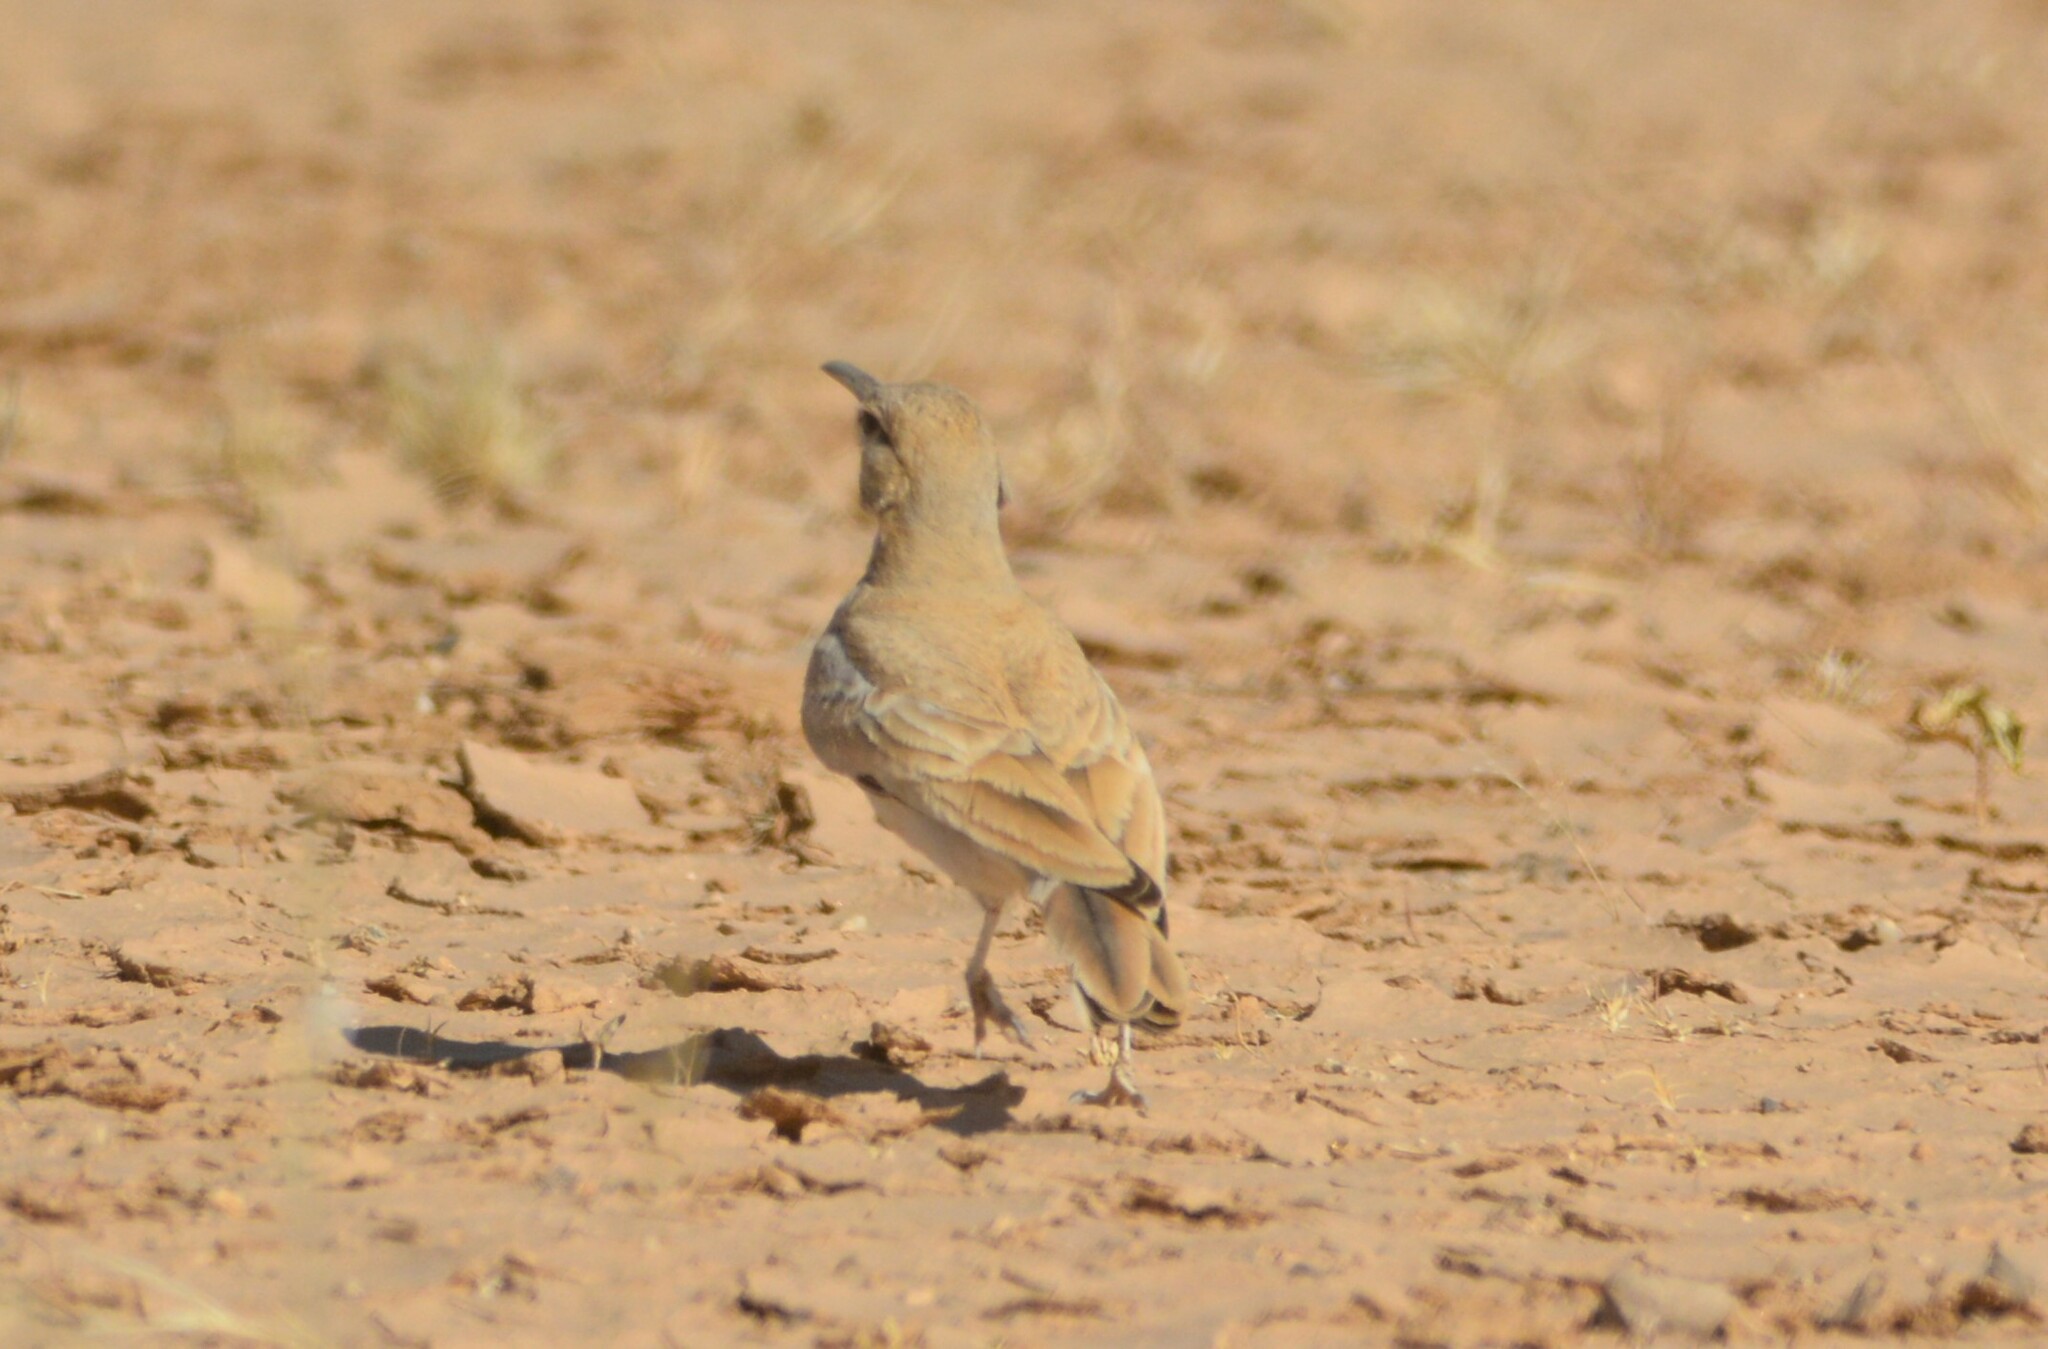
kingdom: Animalia
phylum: Chordata
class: Aves
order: Passeriformes
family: Alaudidae
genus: Alaemon
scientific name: Alaemon alaudipes
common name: Greater hoopoe-lark
